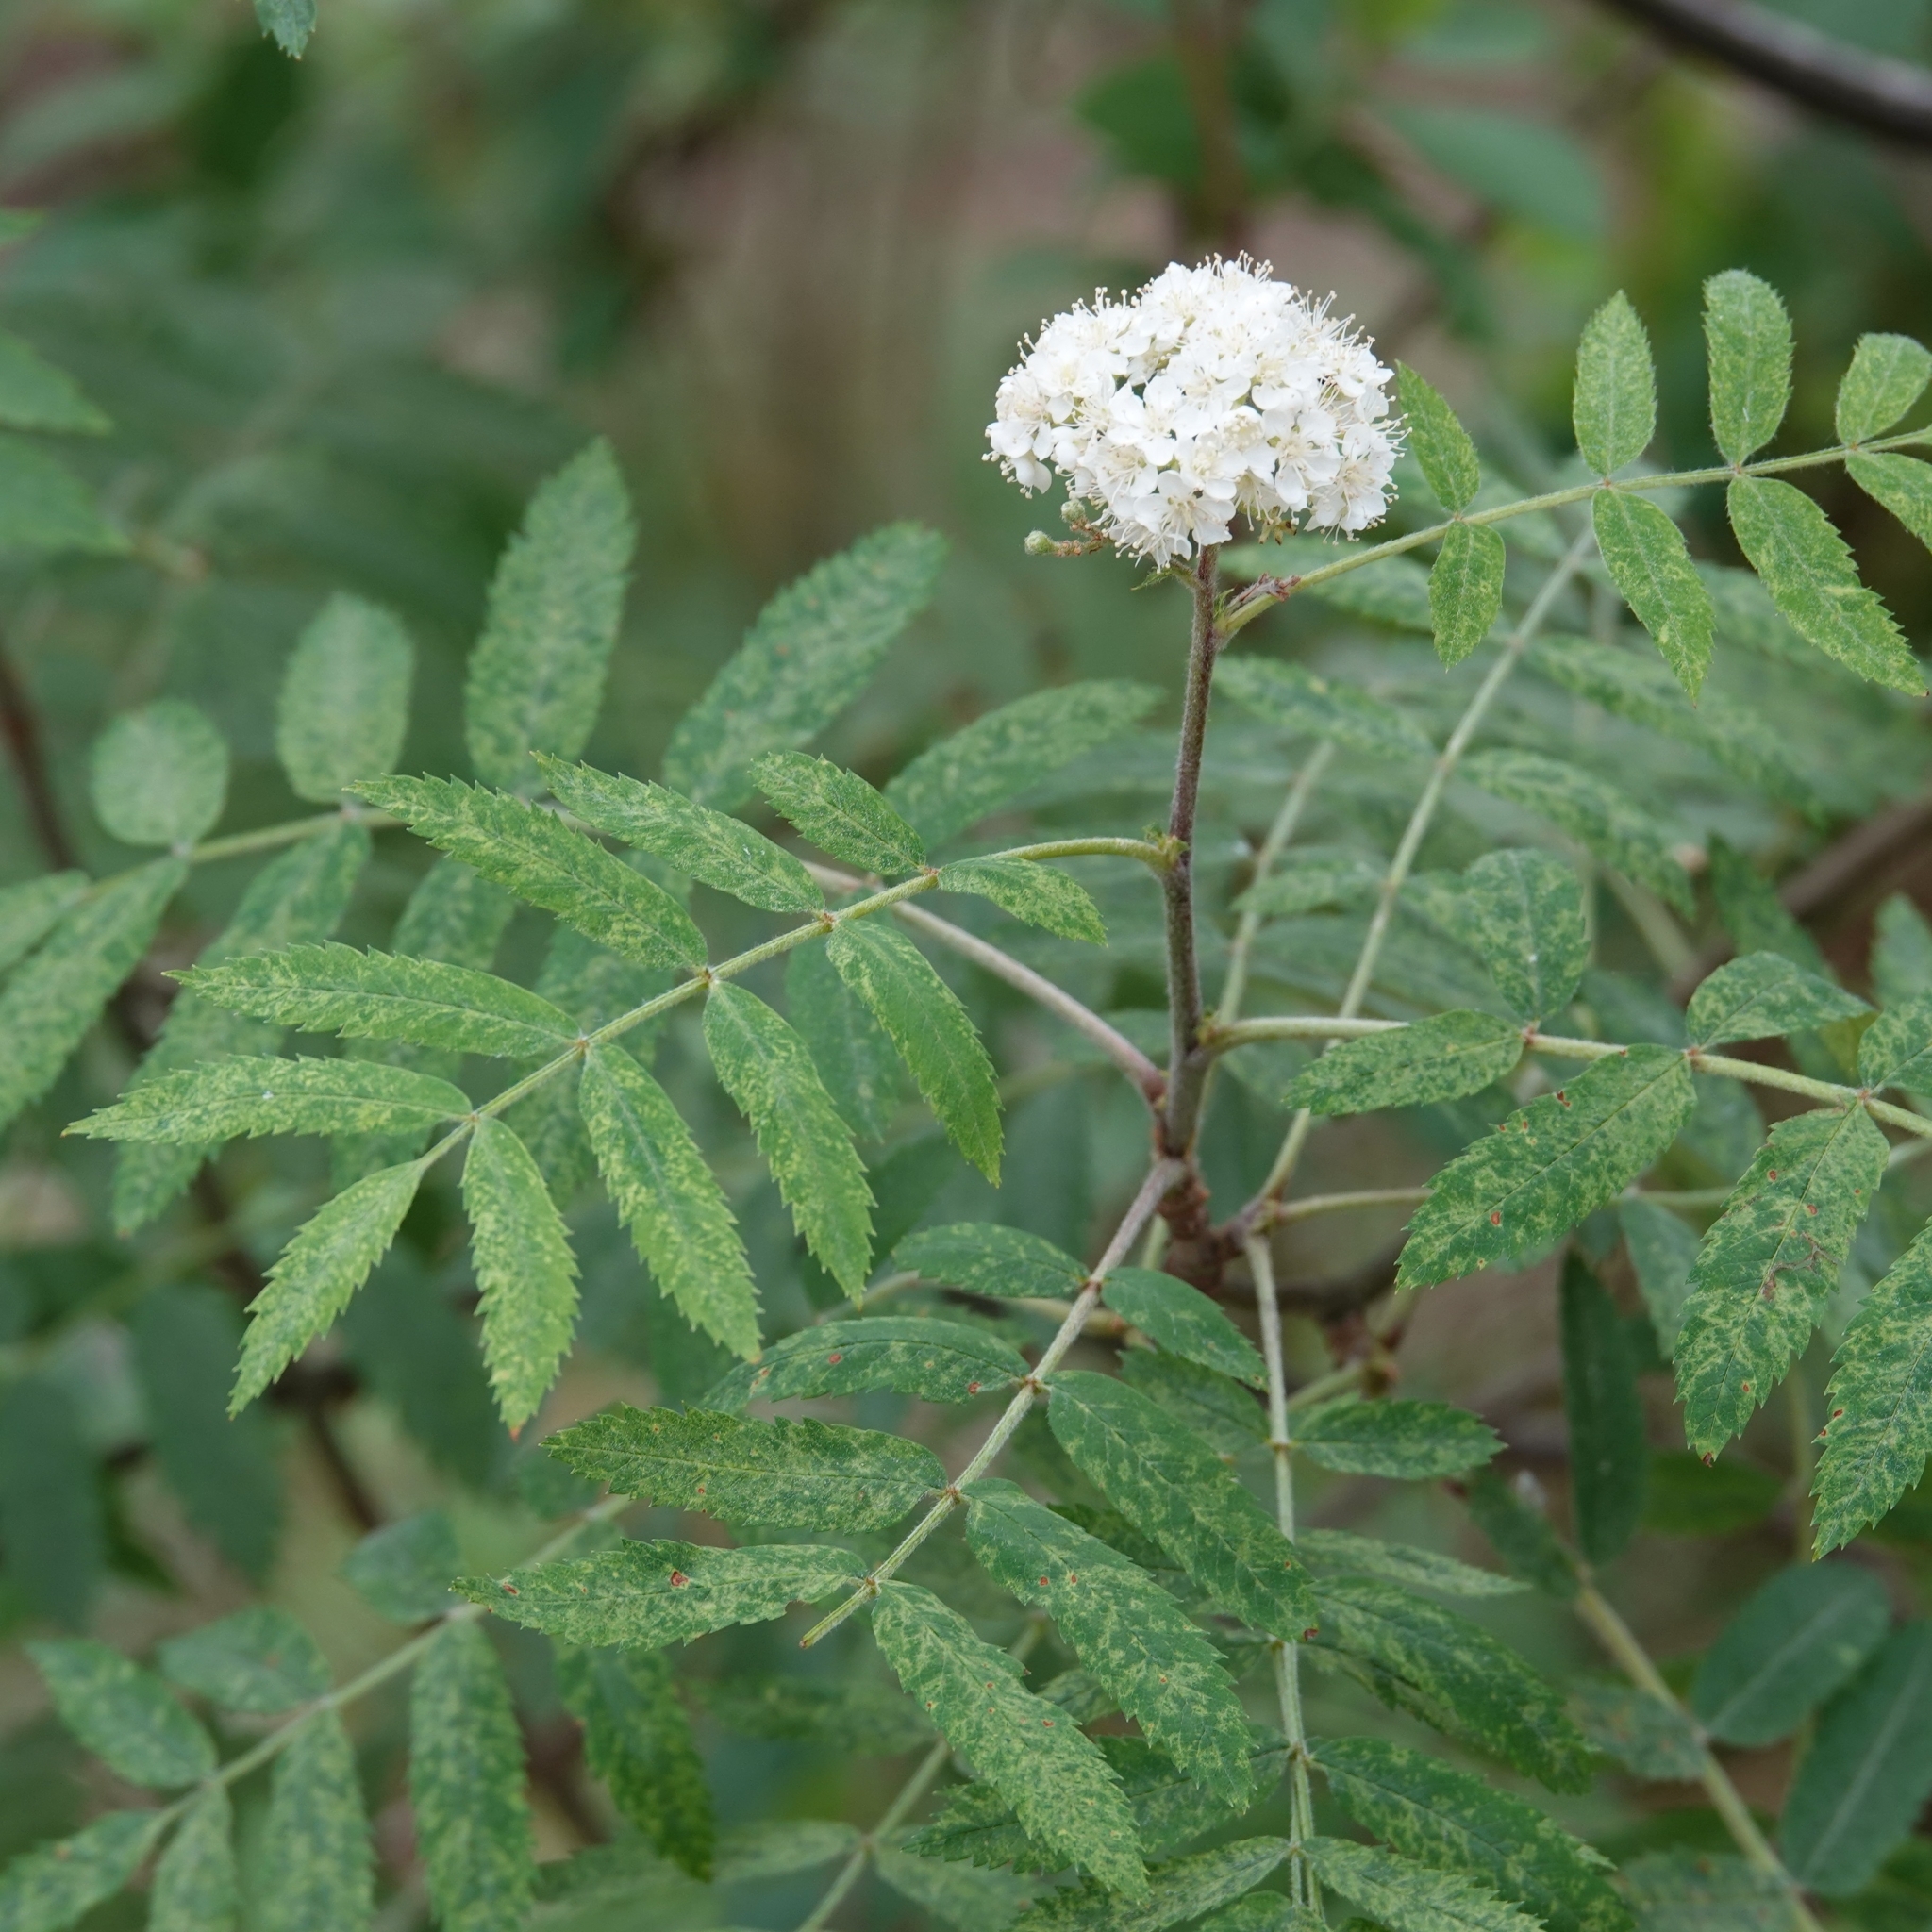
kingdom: Plantae
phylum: Tracheophyta
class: Magnoliopsida
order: Rosales
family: Rosaceae
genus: Sorbus
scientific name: Sorbus aucuparia
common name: Rowan
